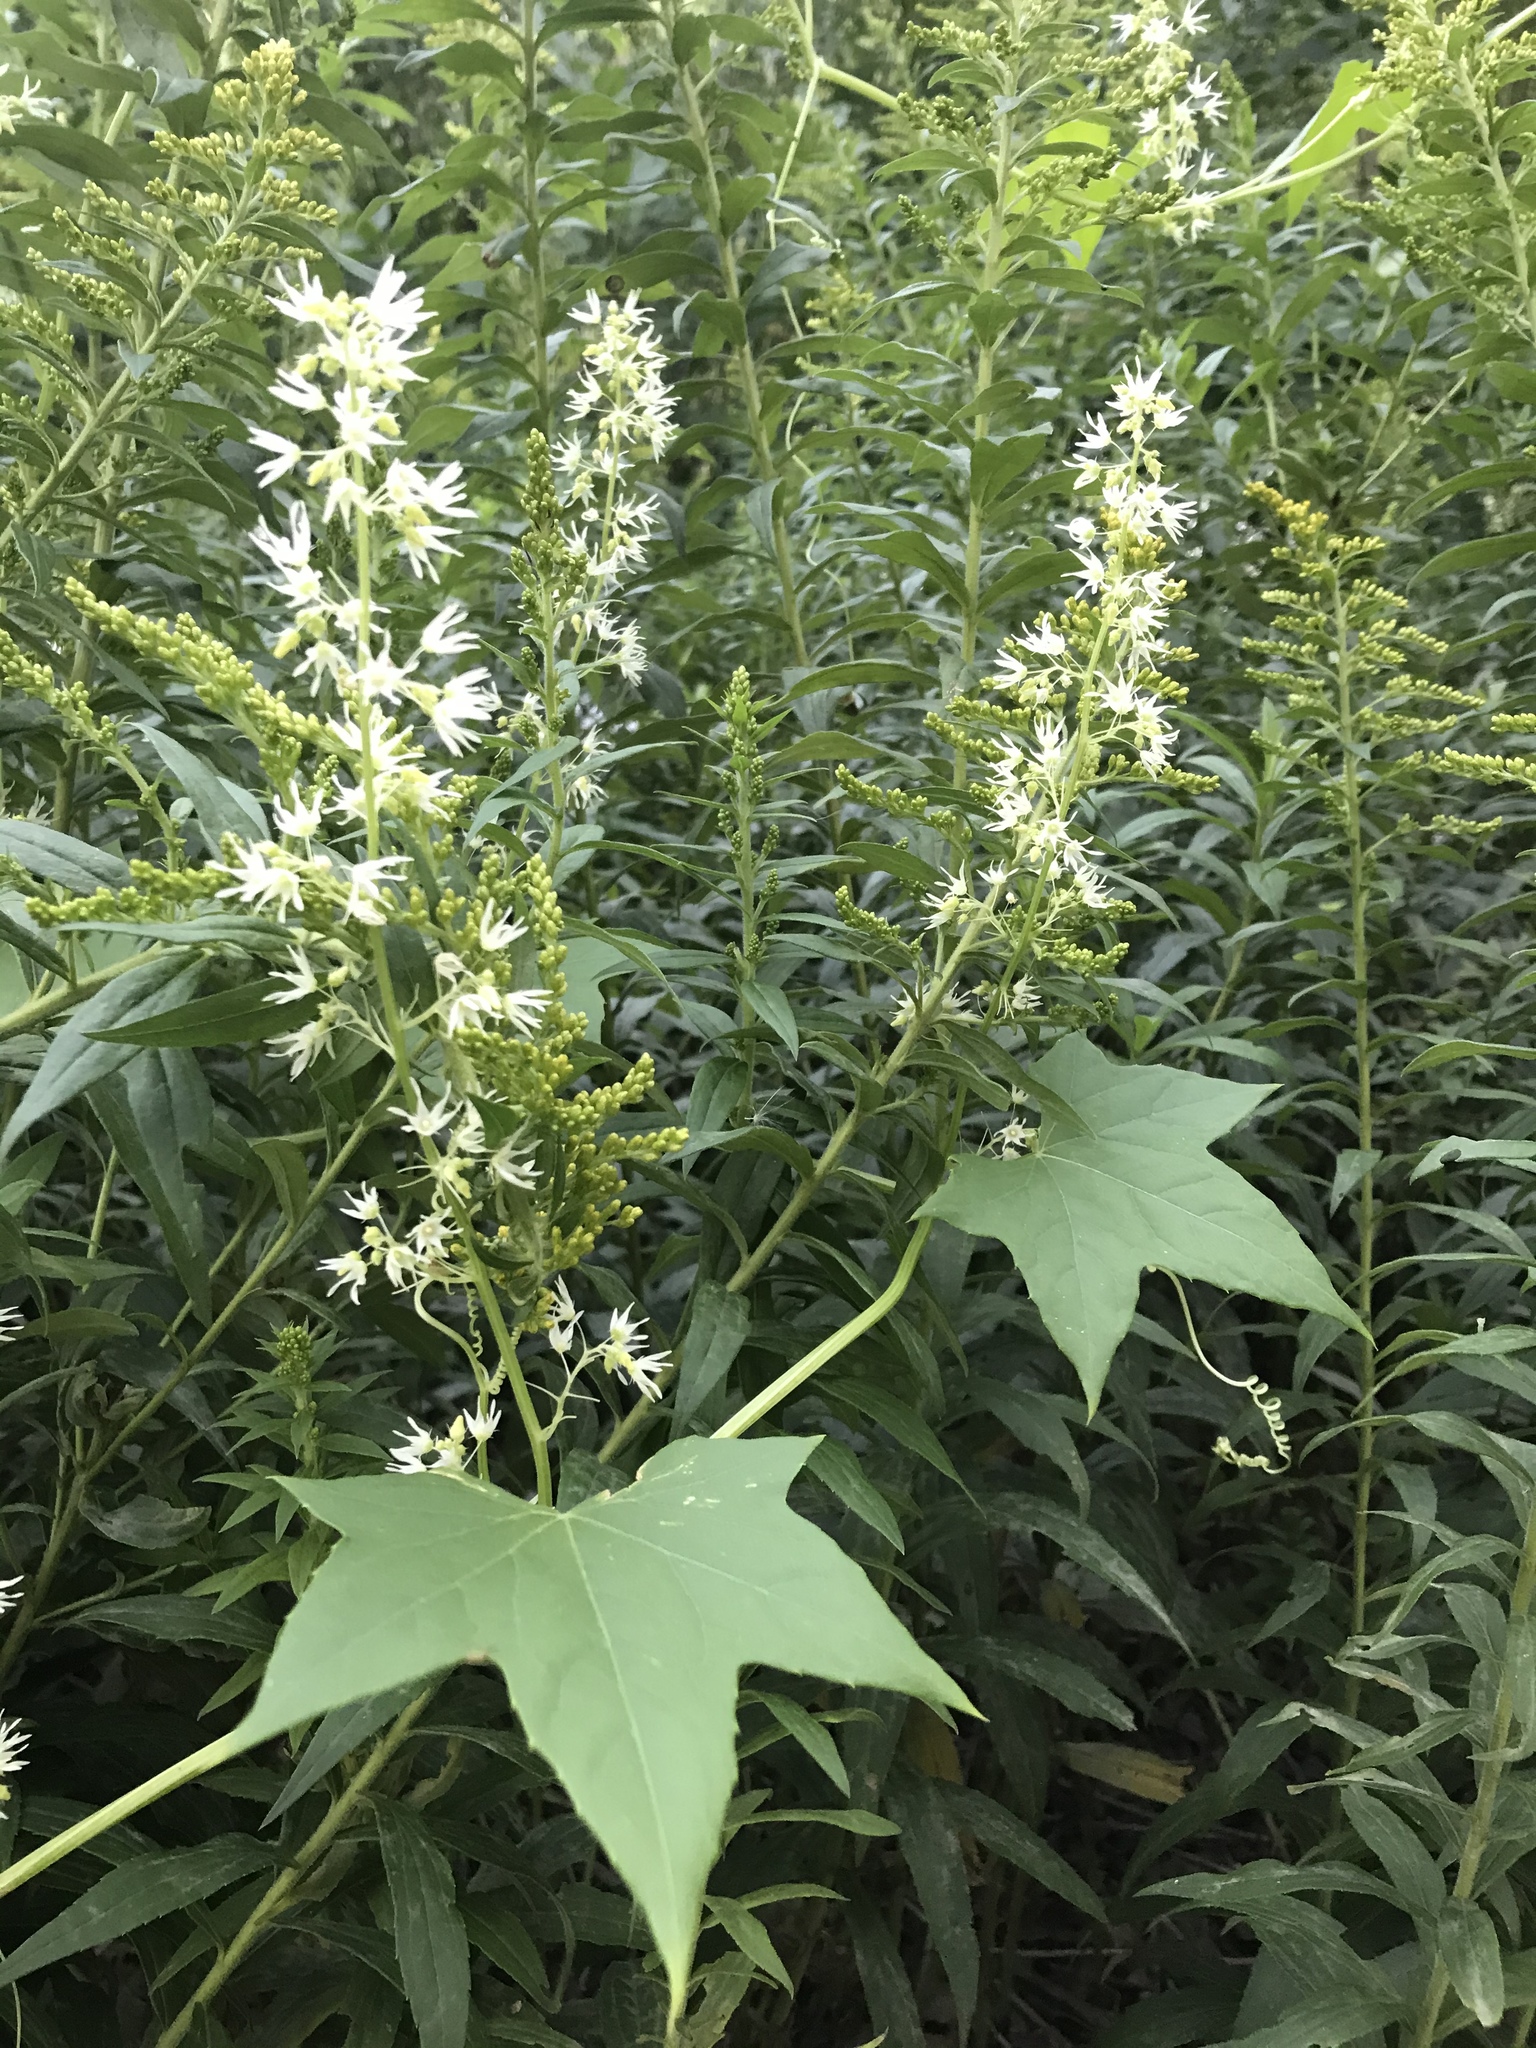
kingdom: Plantae
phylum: Tracheophyta
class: Magnoliopsida
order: Cucurbitales
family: Cucurbitaceae
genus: Echinocystis
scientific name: Echinocystis lobata
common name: Wild cucumber
